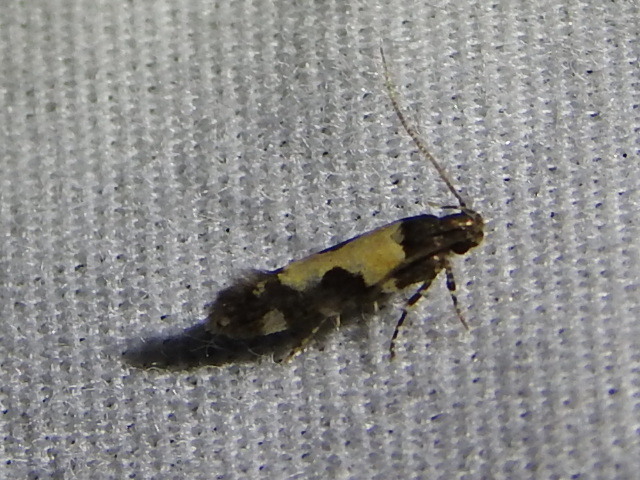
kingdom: Animalia
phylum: Arthropoda
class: Insecta
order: Lepidoptera
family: Gelechiidae
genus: Stegasta
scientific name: Stegasta bosqueella
